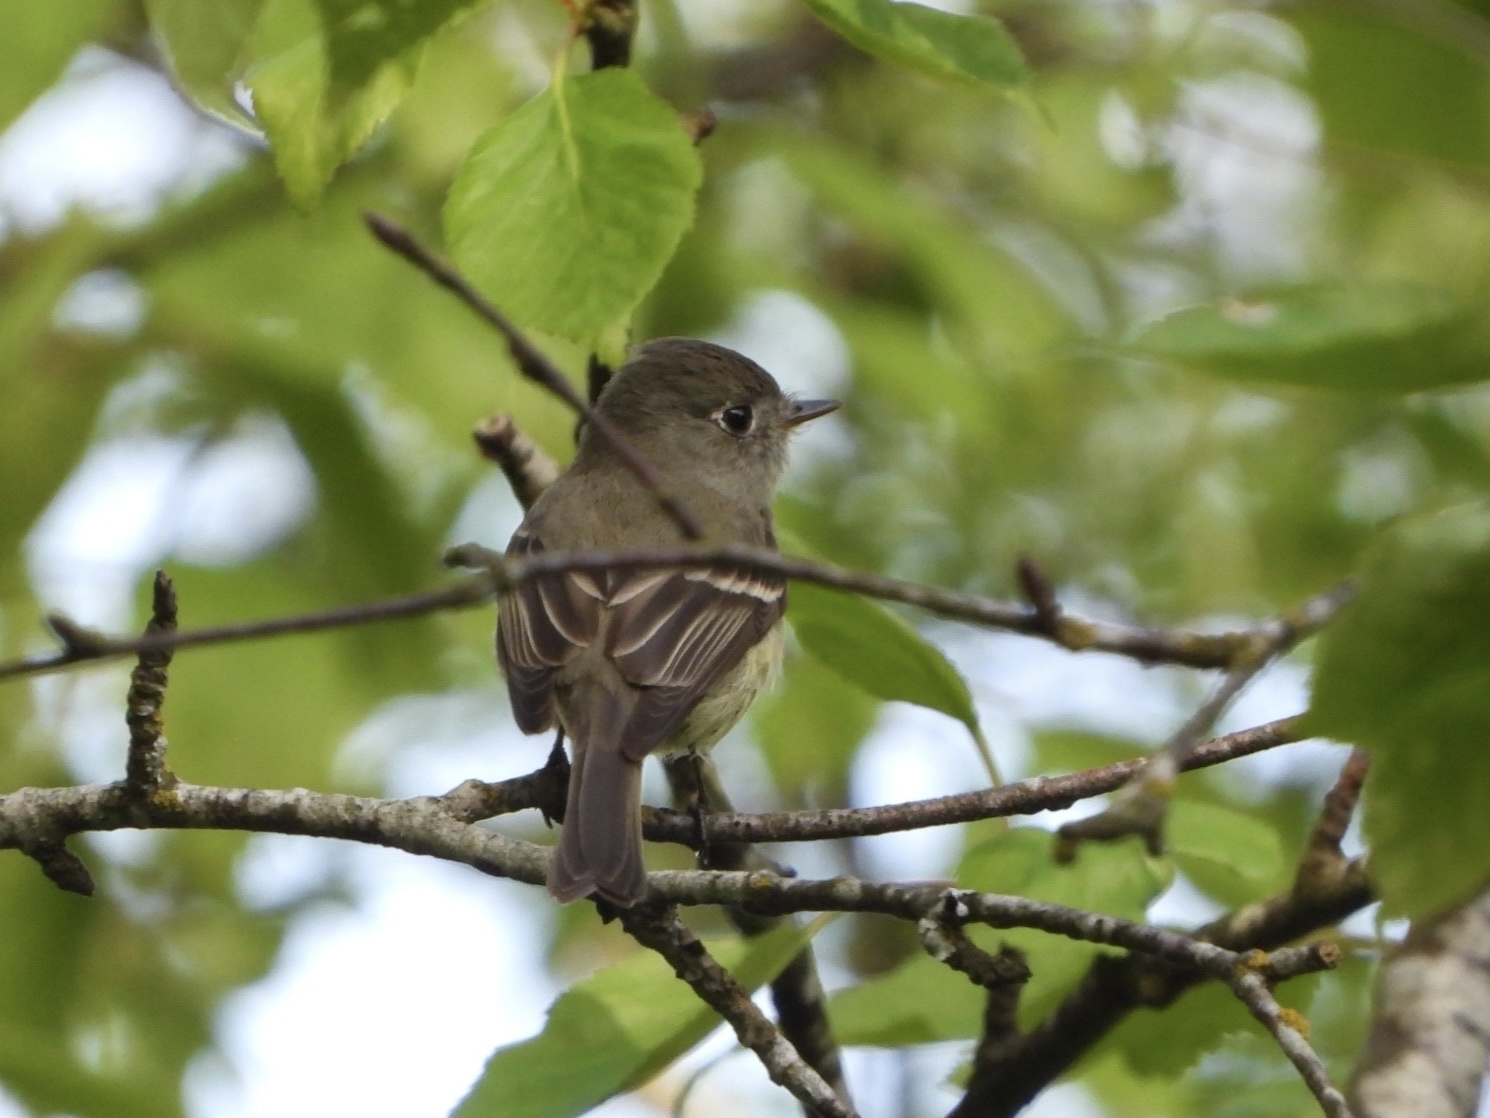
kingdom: Animalia
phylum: Chordata
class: Aves
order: Passeriformes
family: Tyrannidae
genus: Empidonax
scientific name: Empidonax hammondii
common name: Hammond's flycatcher
